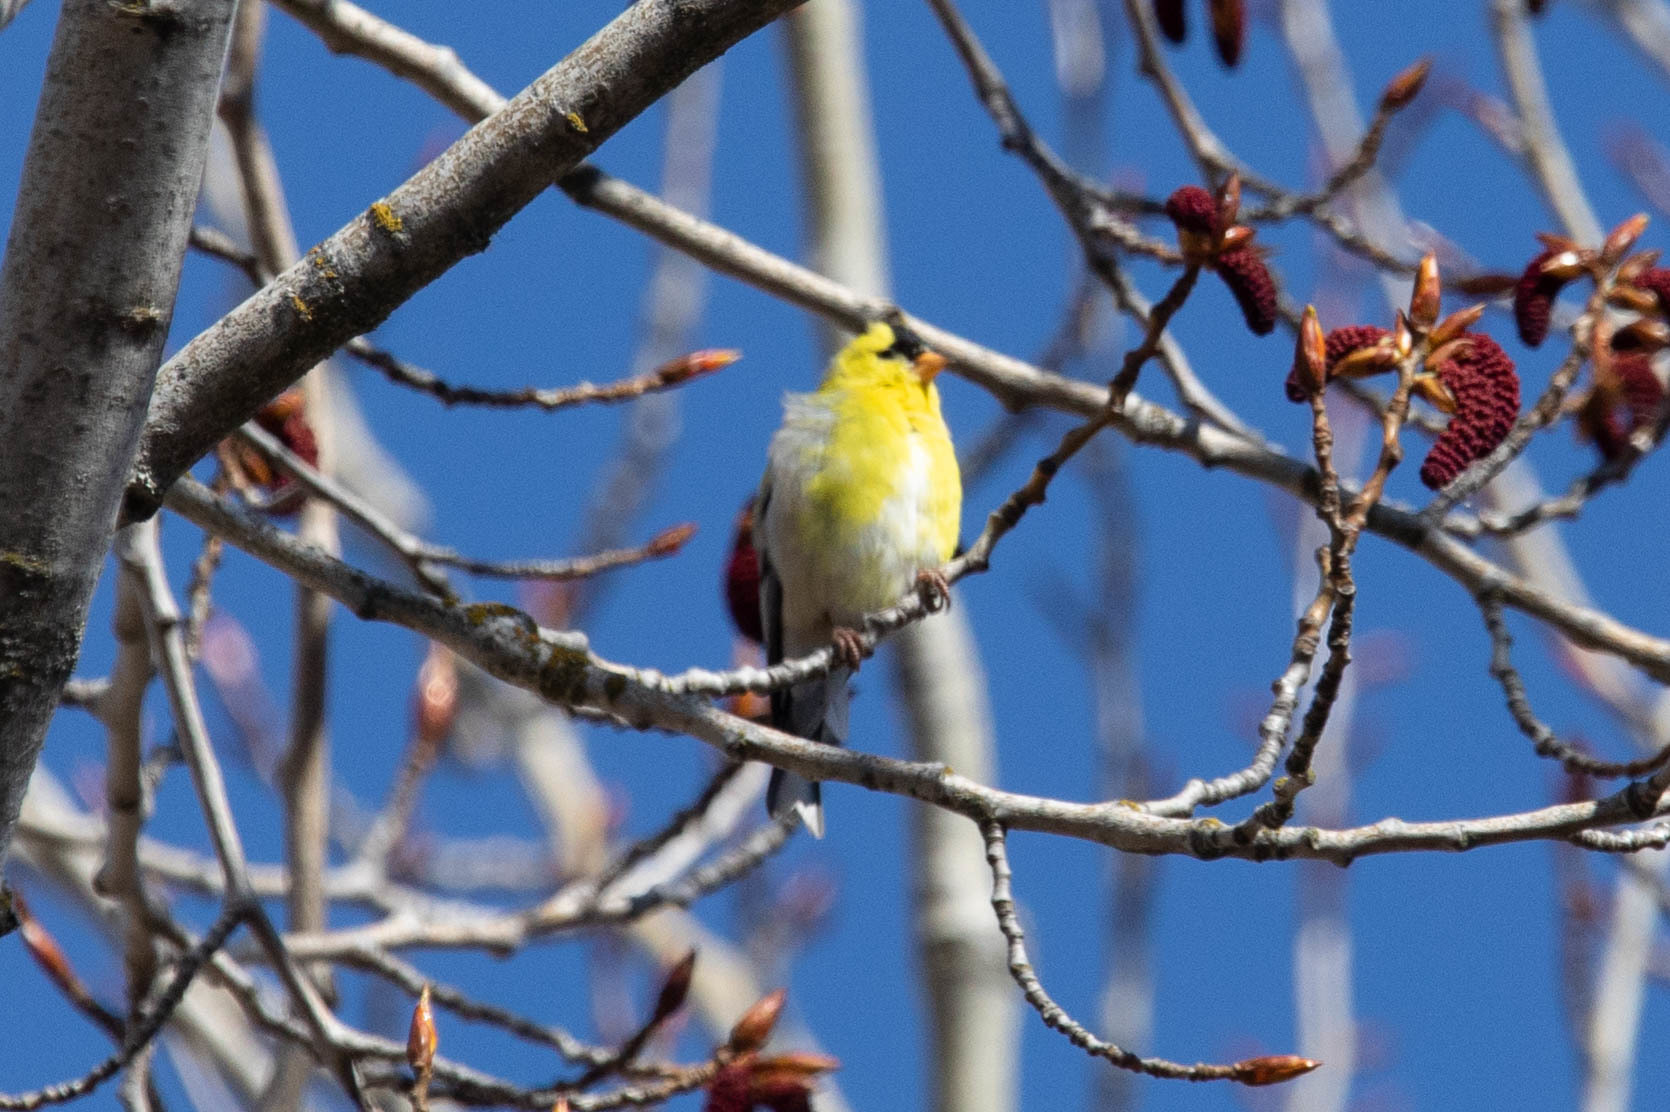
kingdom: Animalia
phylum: Chordata
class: Aves
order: Passeriformes
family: Fringillidae
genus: Spinus
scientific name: Spinus tristis
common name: American goldfinch
